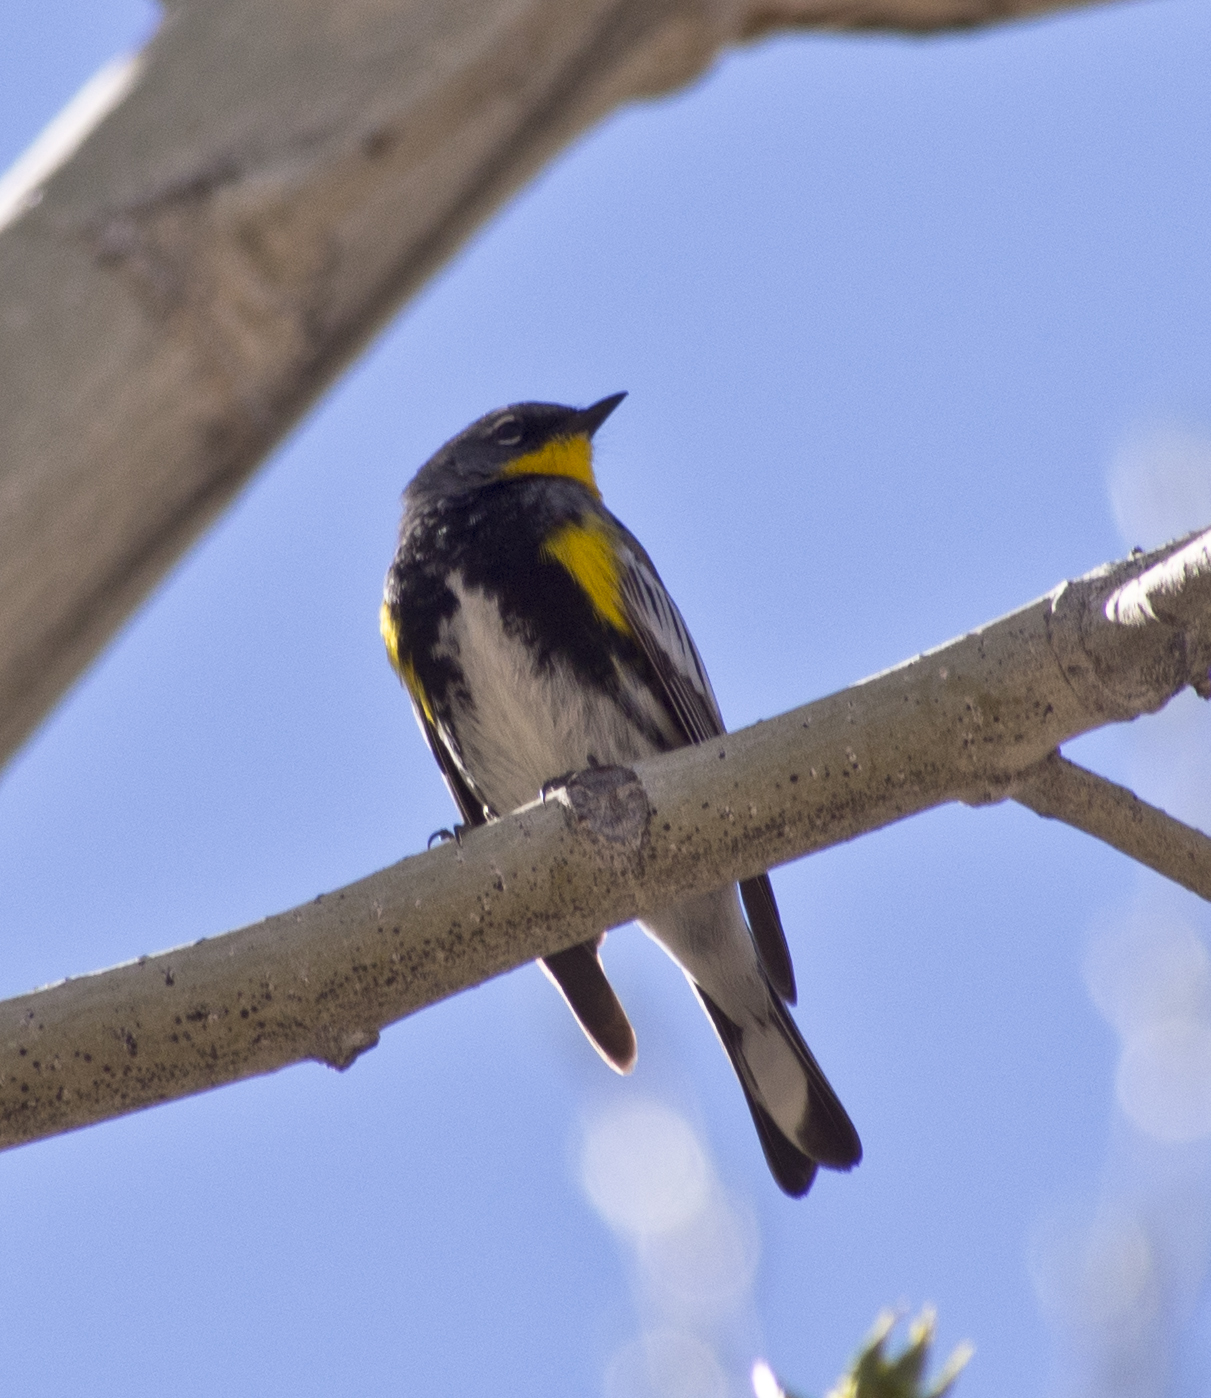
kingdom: Animalia
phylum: Chordata
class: Aves
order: Passeriformes
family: Parulidae
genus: Setophaga
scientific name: Setophaga auduboni
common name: Audubon's warbler
